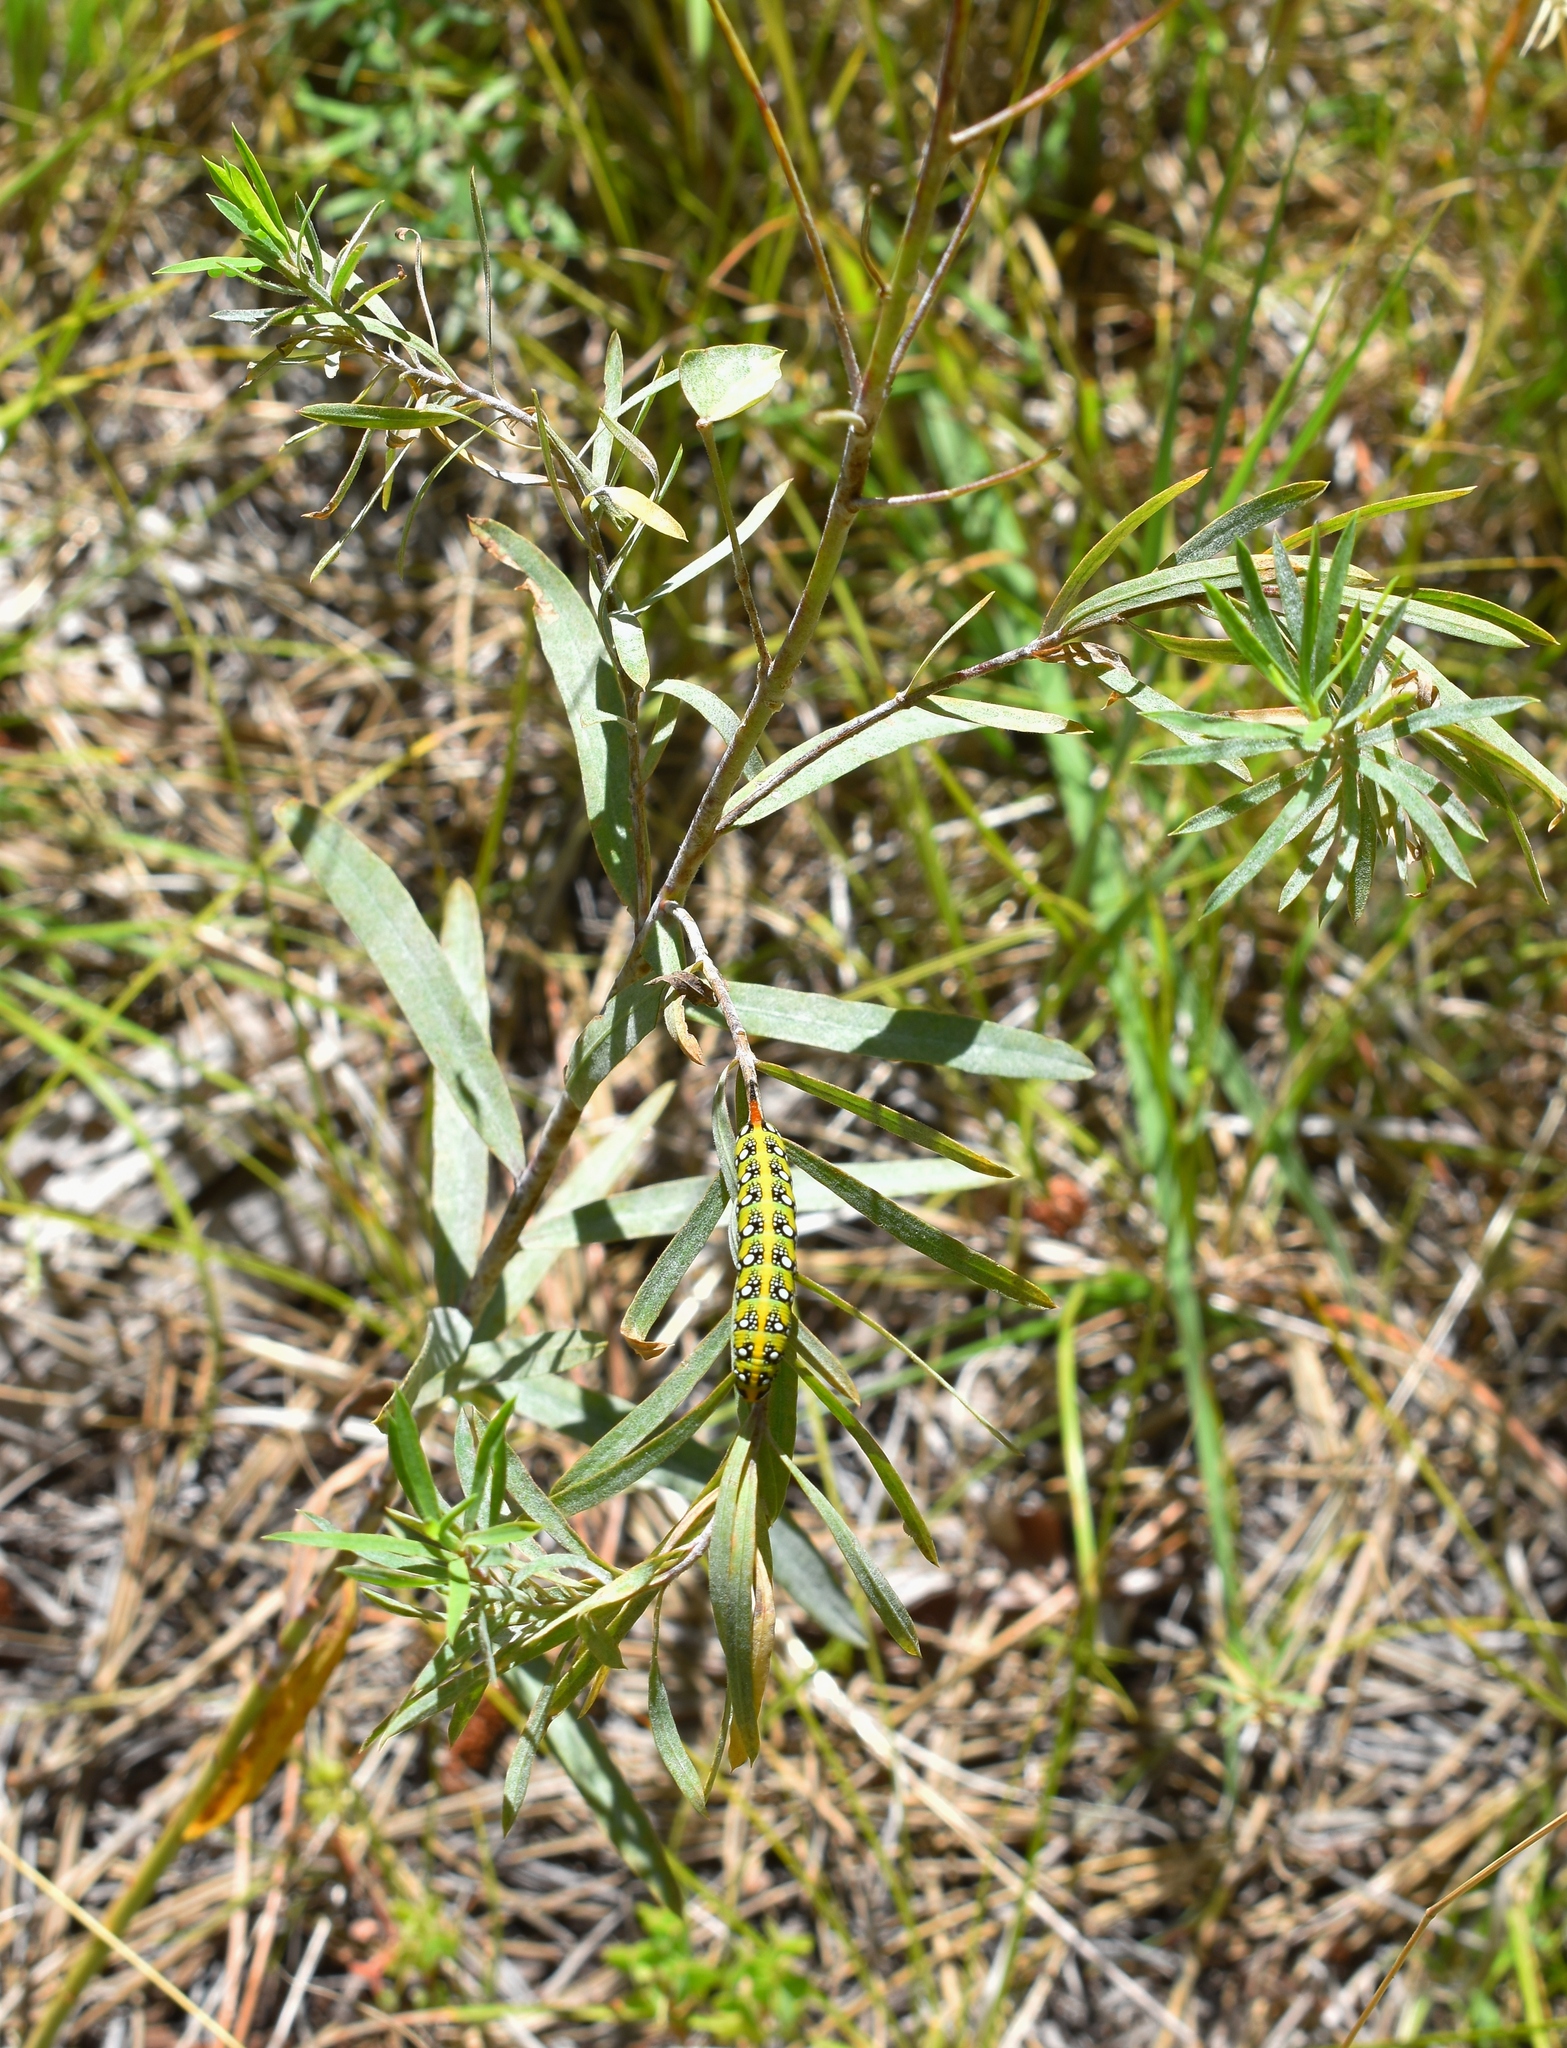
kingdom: Animalia
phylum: Arthropoda
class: Insecta
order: Lepidoptera
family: Sphingidae
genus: Hyles
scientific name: Hyles euphorbiae
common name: Spurge hawk-moth
